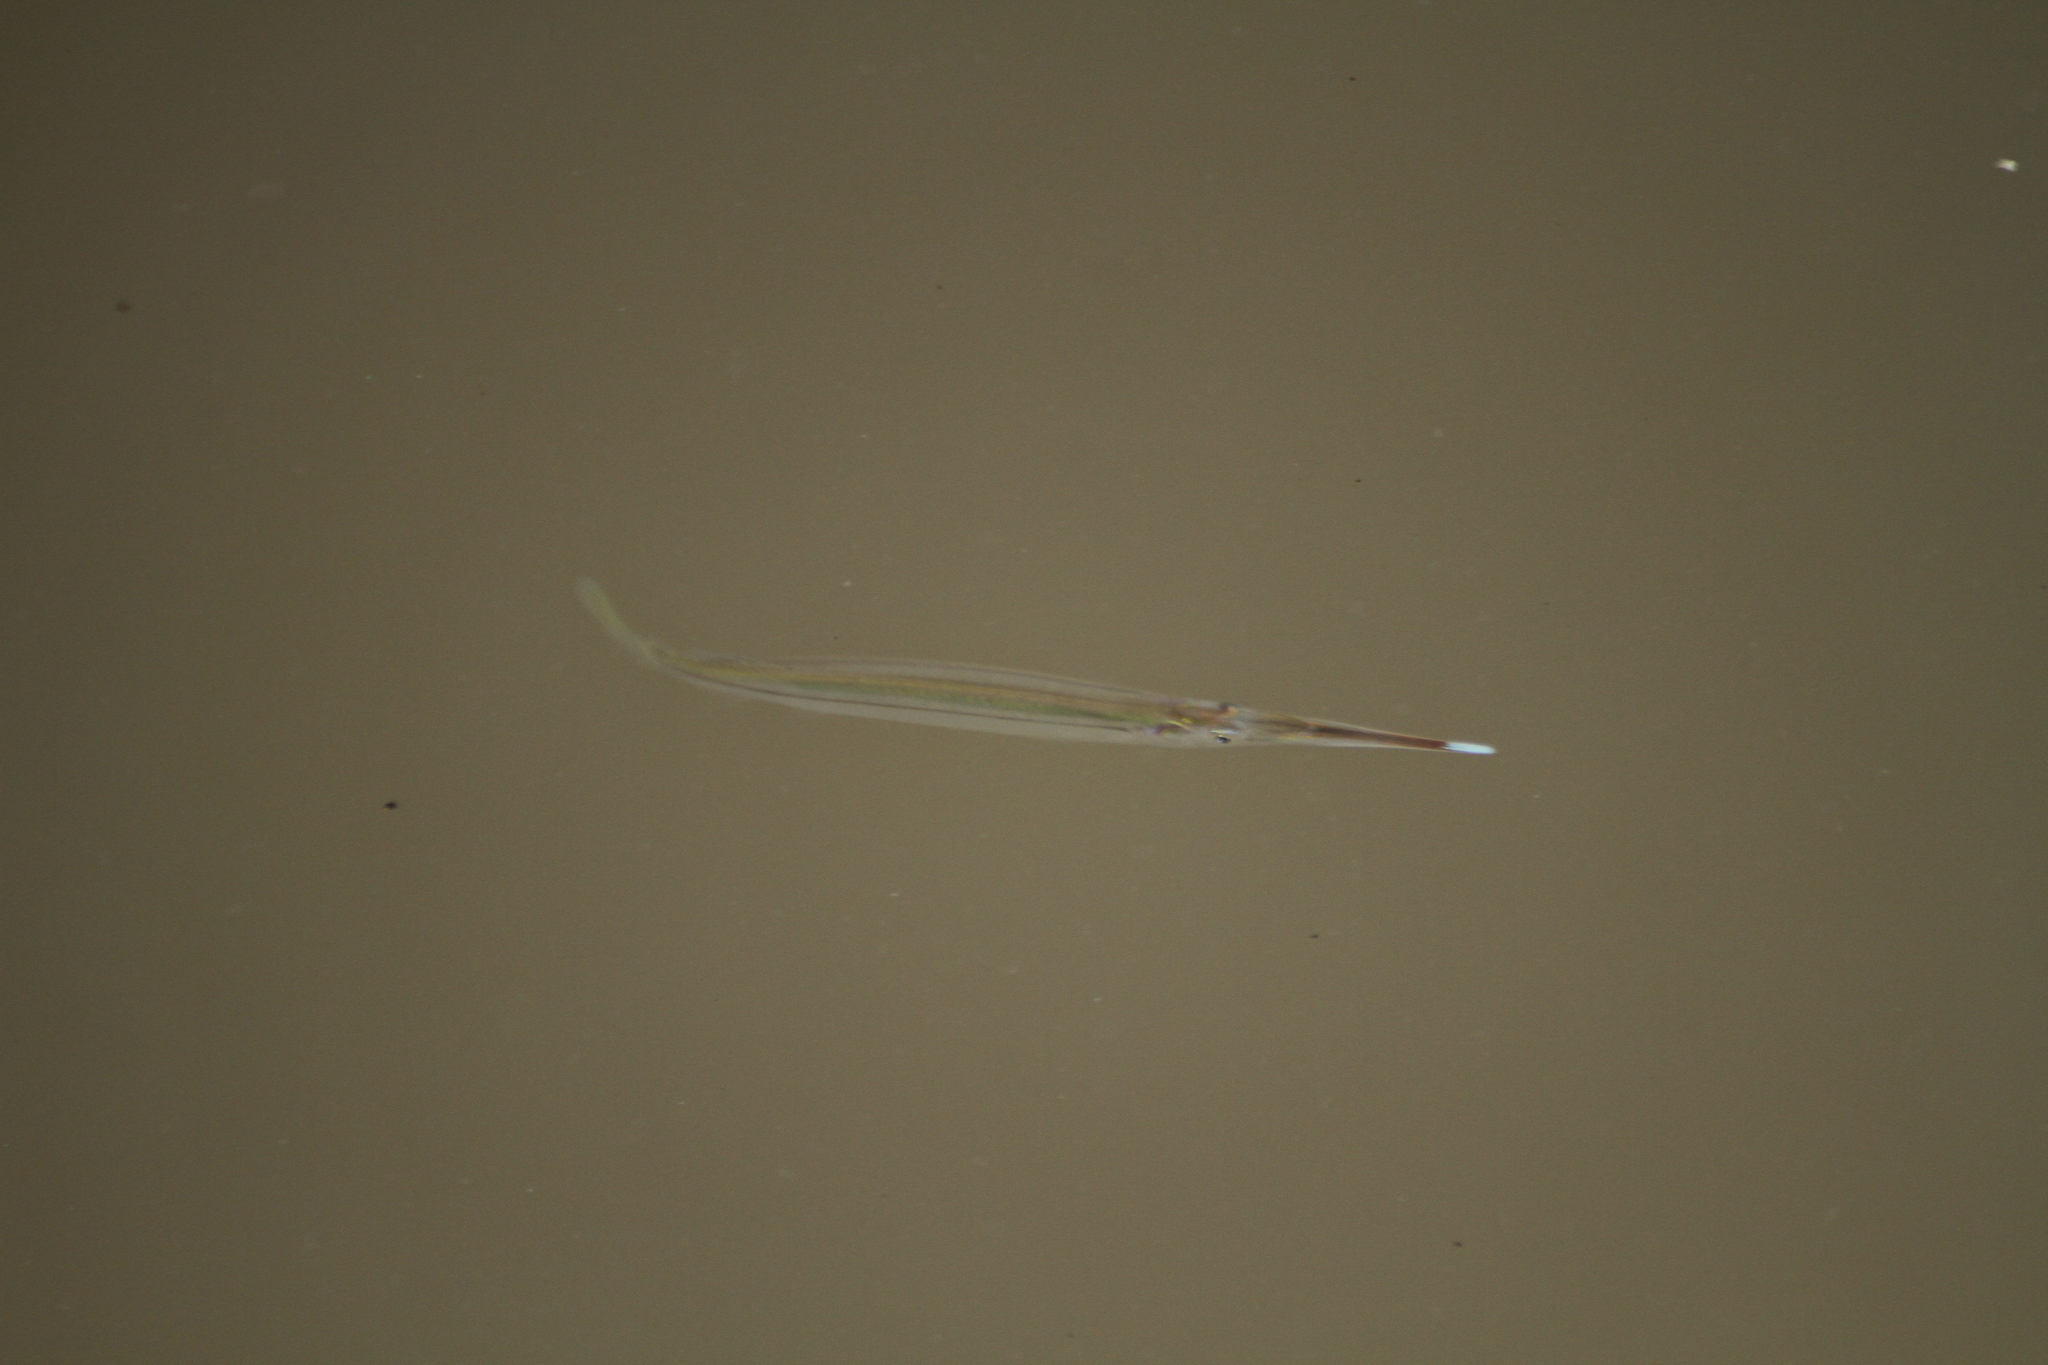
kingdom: Animalia
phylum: Chordata
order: Beloniformes
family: Zenarchopteridae
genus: Zenarchopterus
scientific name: Zenarchopterus buffonis
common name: Buffon's river-garfish
